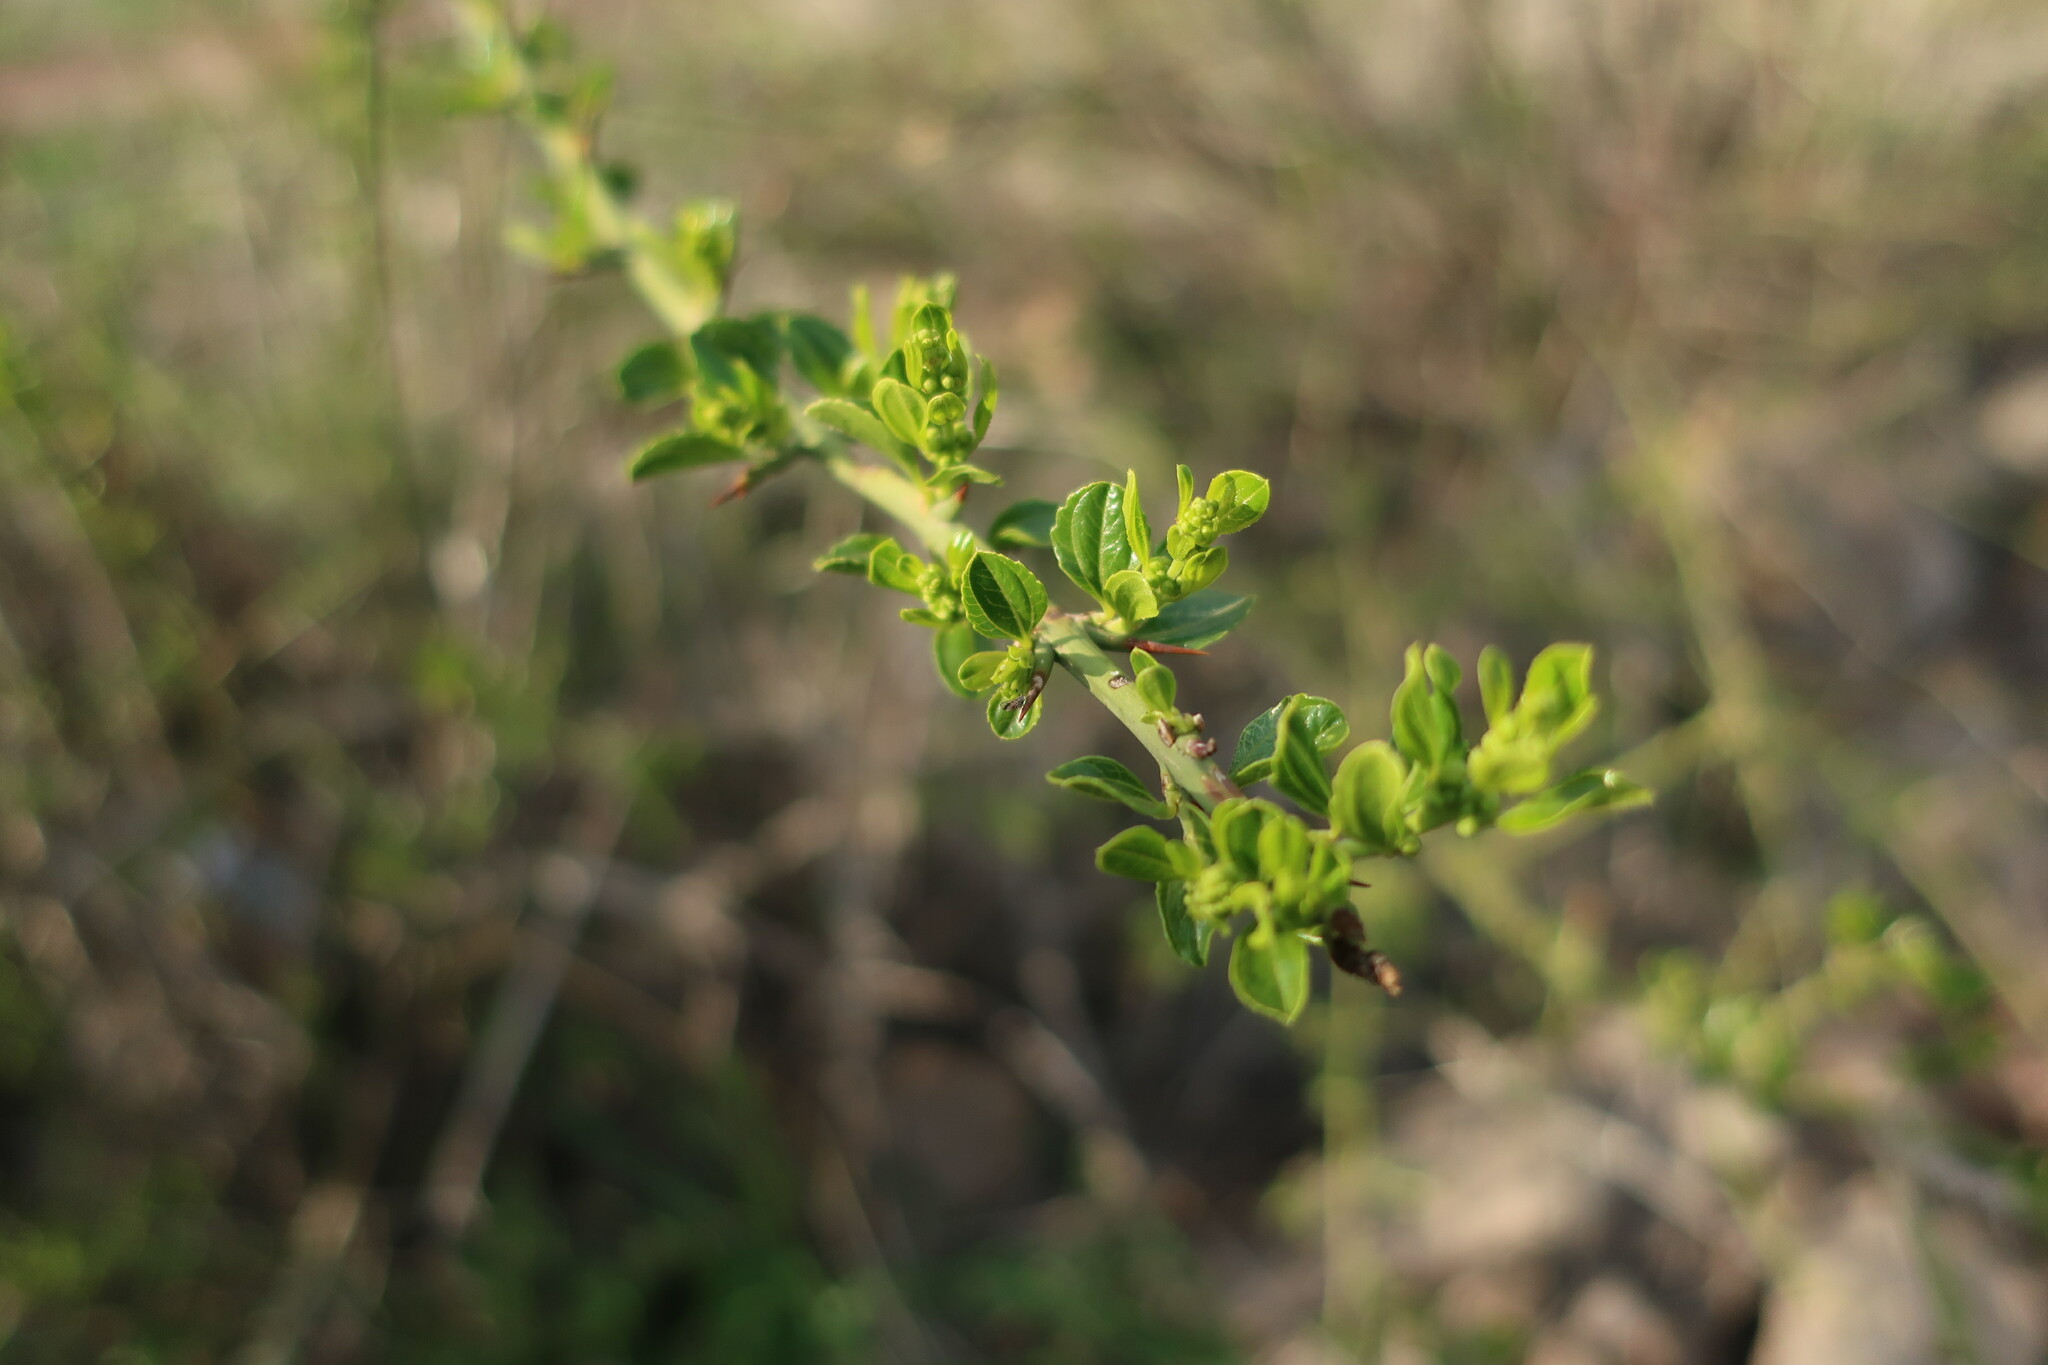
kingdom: Plantae
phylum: Tracheophyta
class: Magnoliopsida
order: Rosales
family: Rhamnaceae
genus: Retanilla
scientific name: Retanilla trinervia
